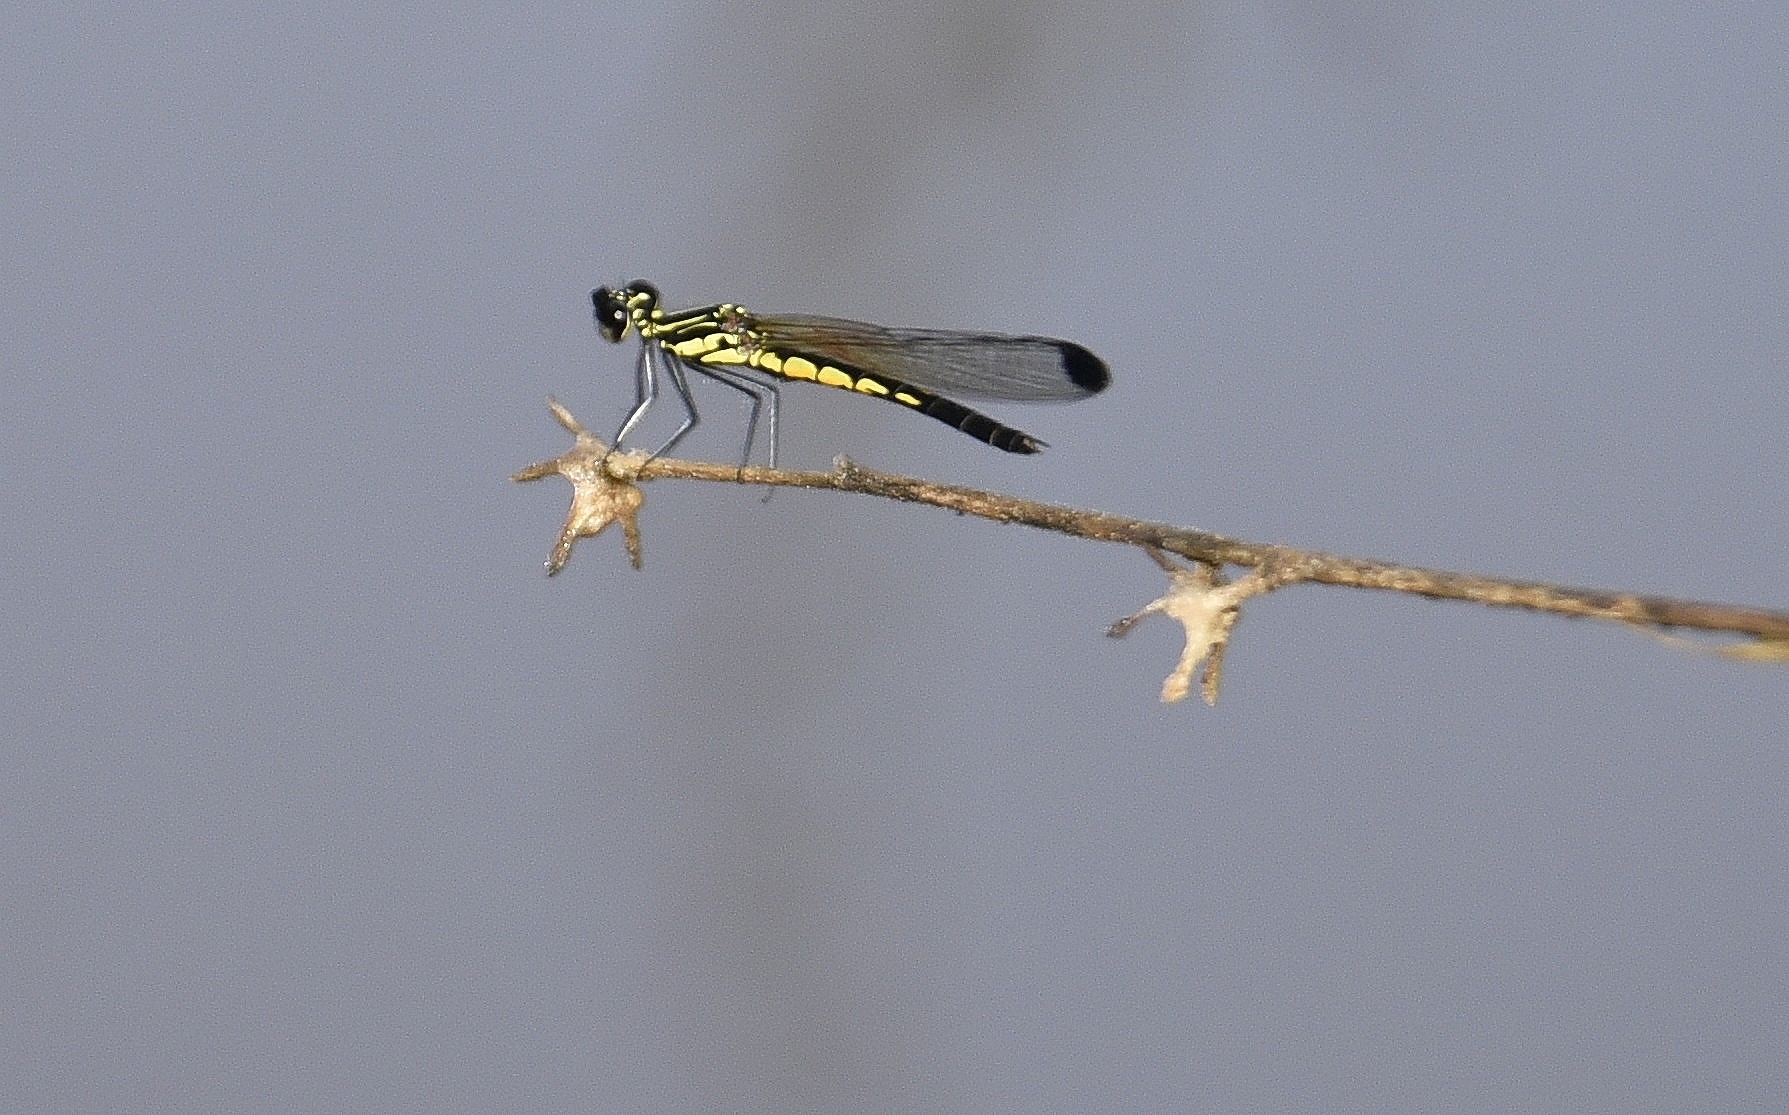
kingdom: Animalia
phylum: Arthropoda
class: Insecta
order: Odonata
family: Chlorocyphidae
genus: Libellago
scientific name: Libellago indica
